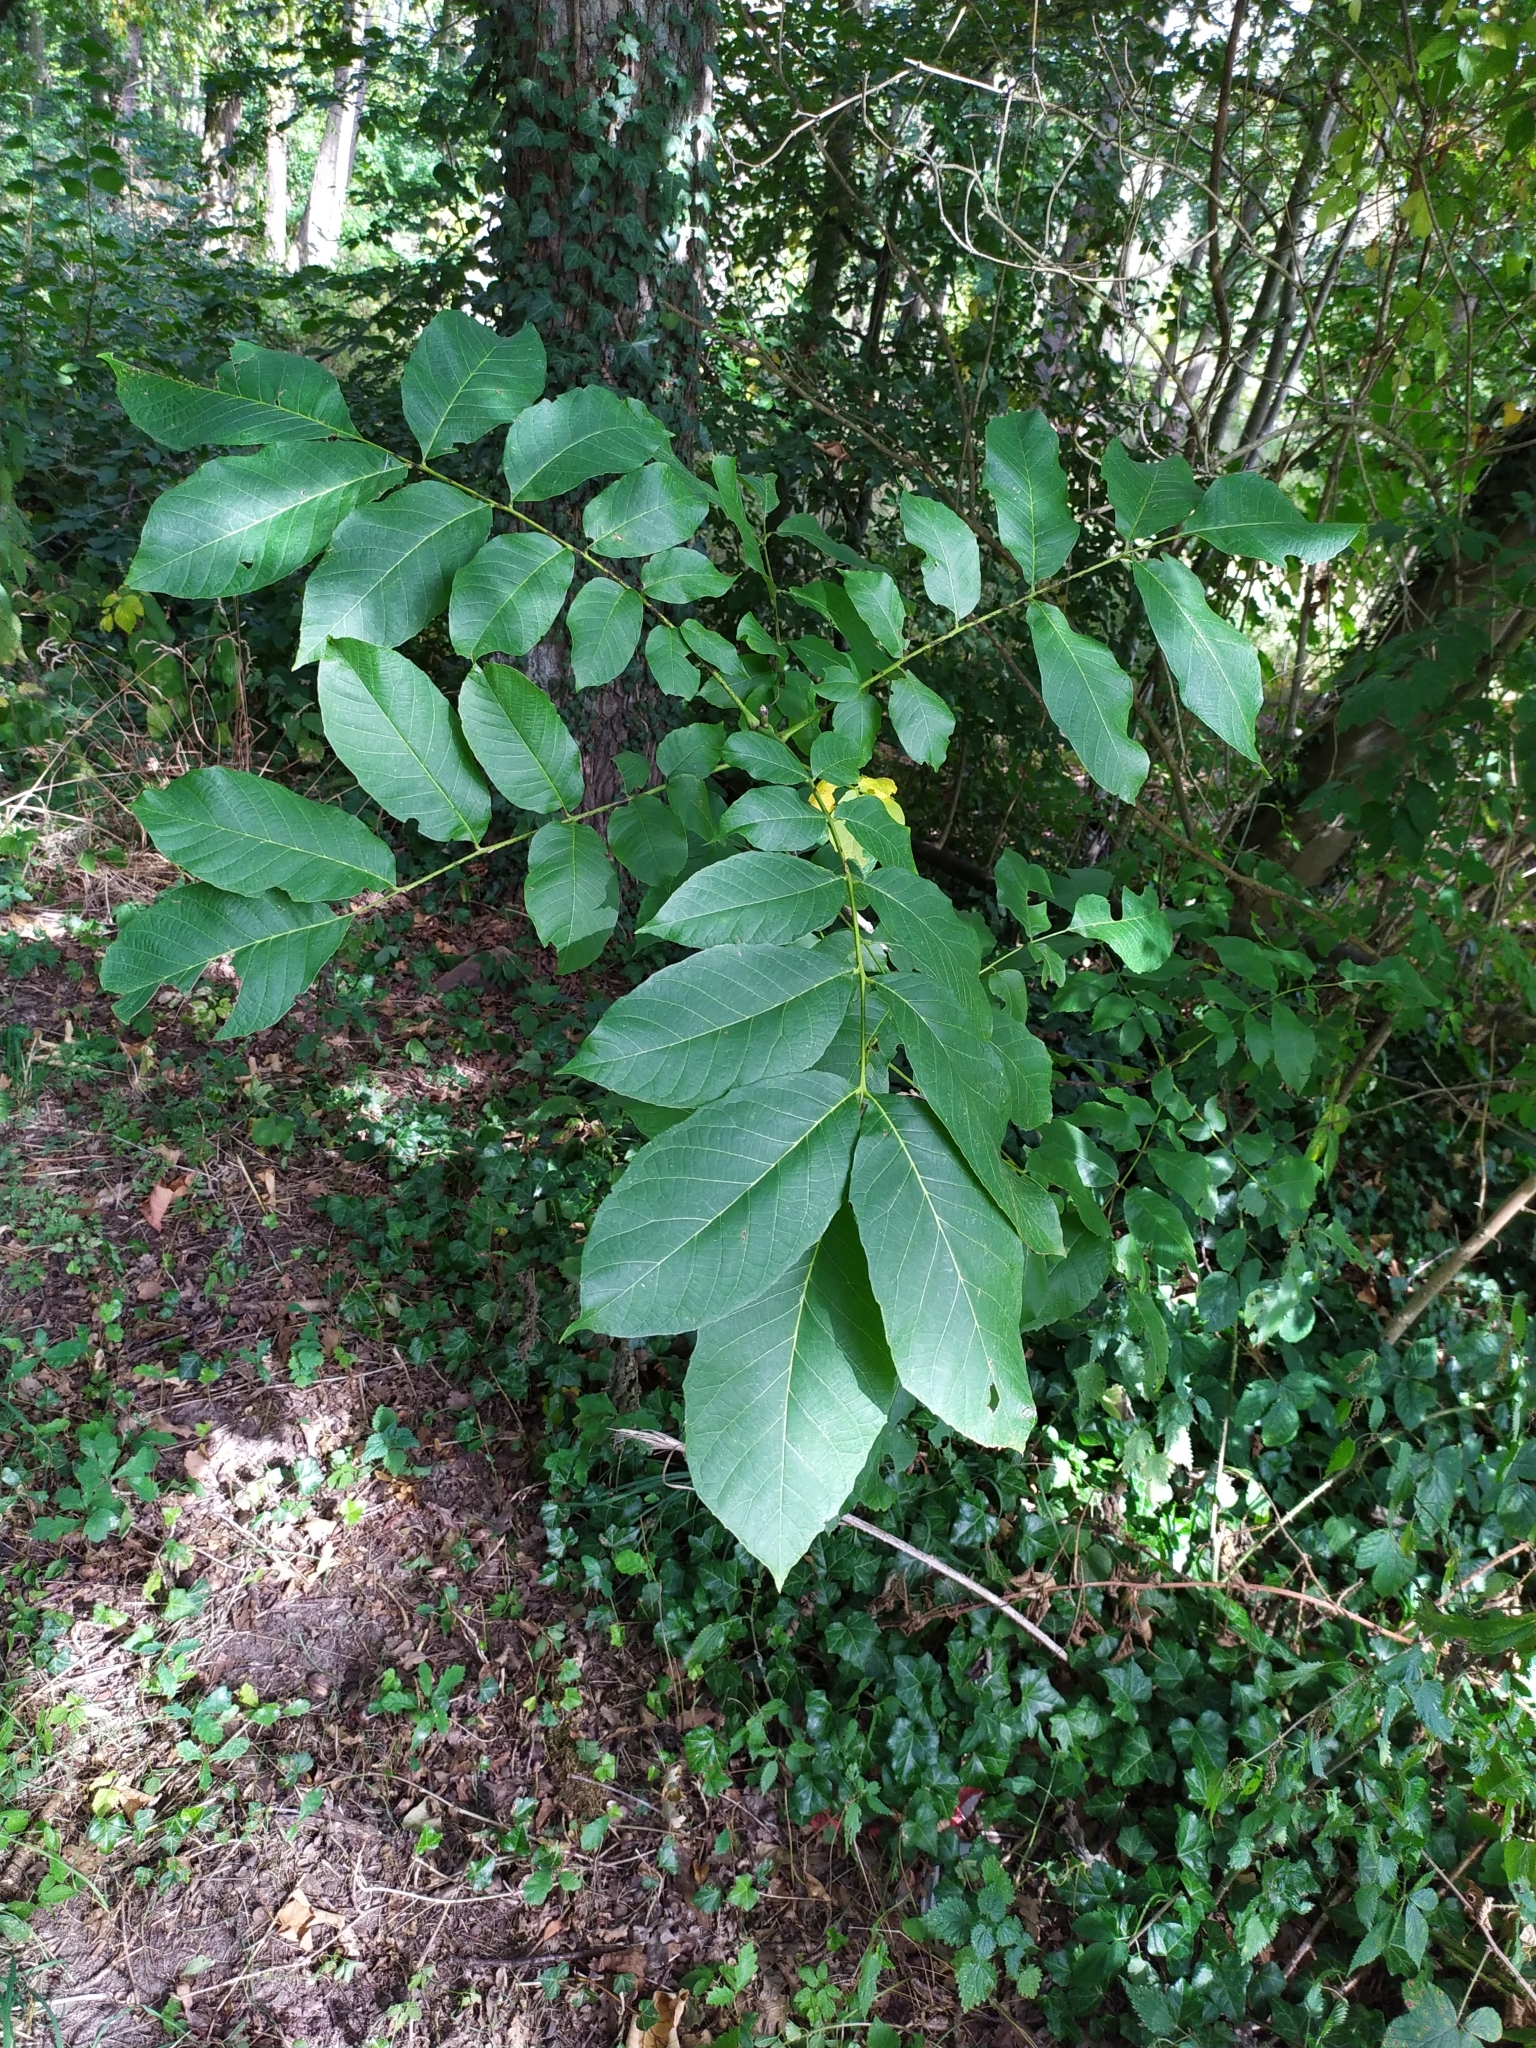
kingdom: Plantae
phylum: Tracheophyta
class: Magnoliopsida
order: Fagales
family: Juglandaceae
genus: Juglans
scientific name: Juglans regia
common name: Walnut
